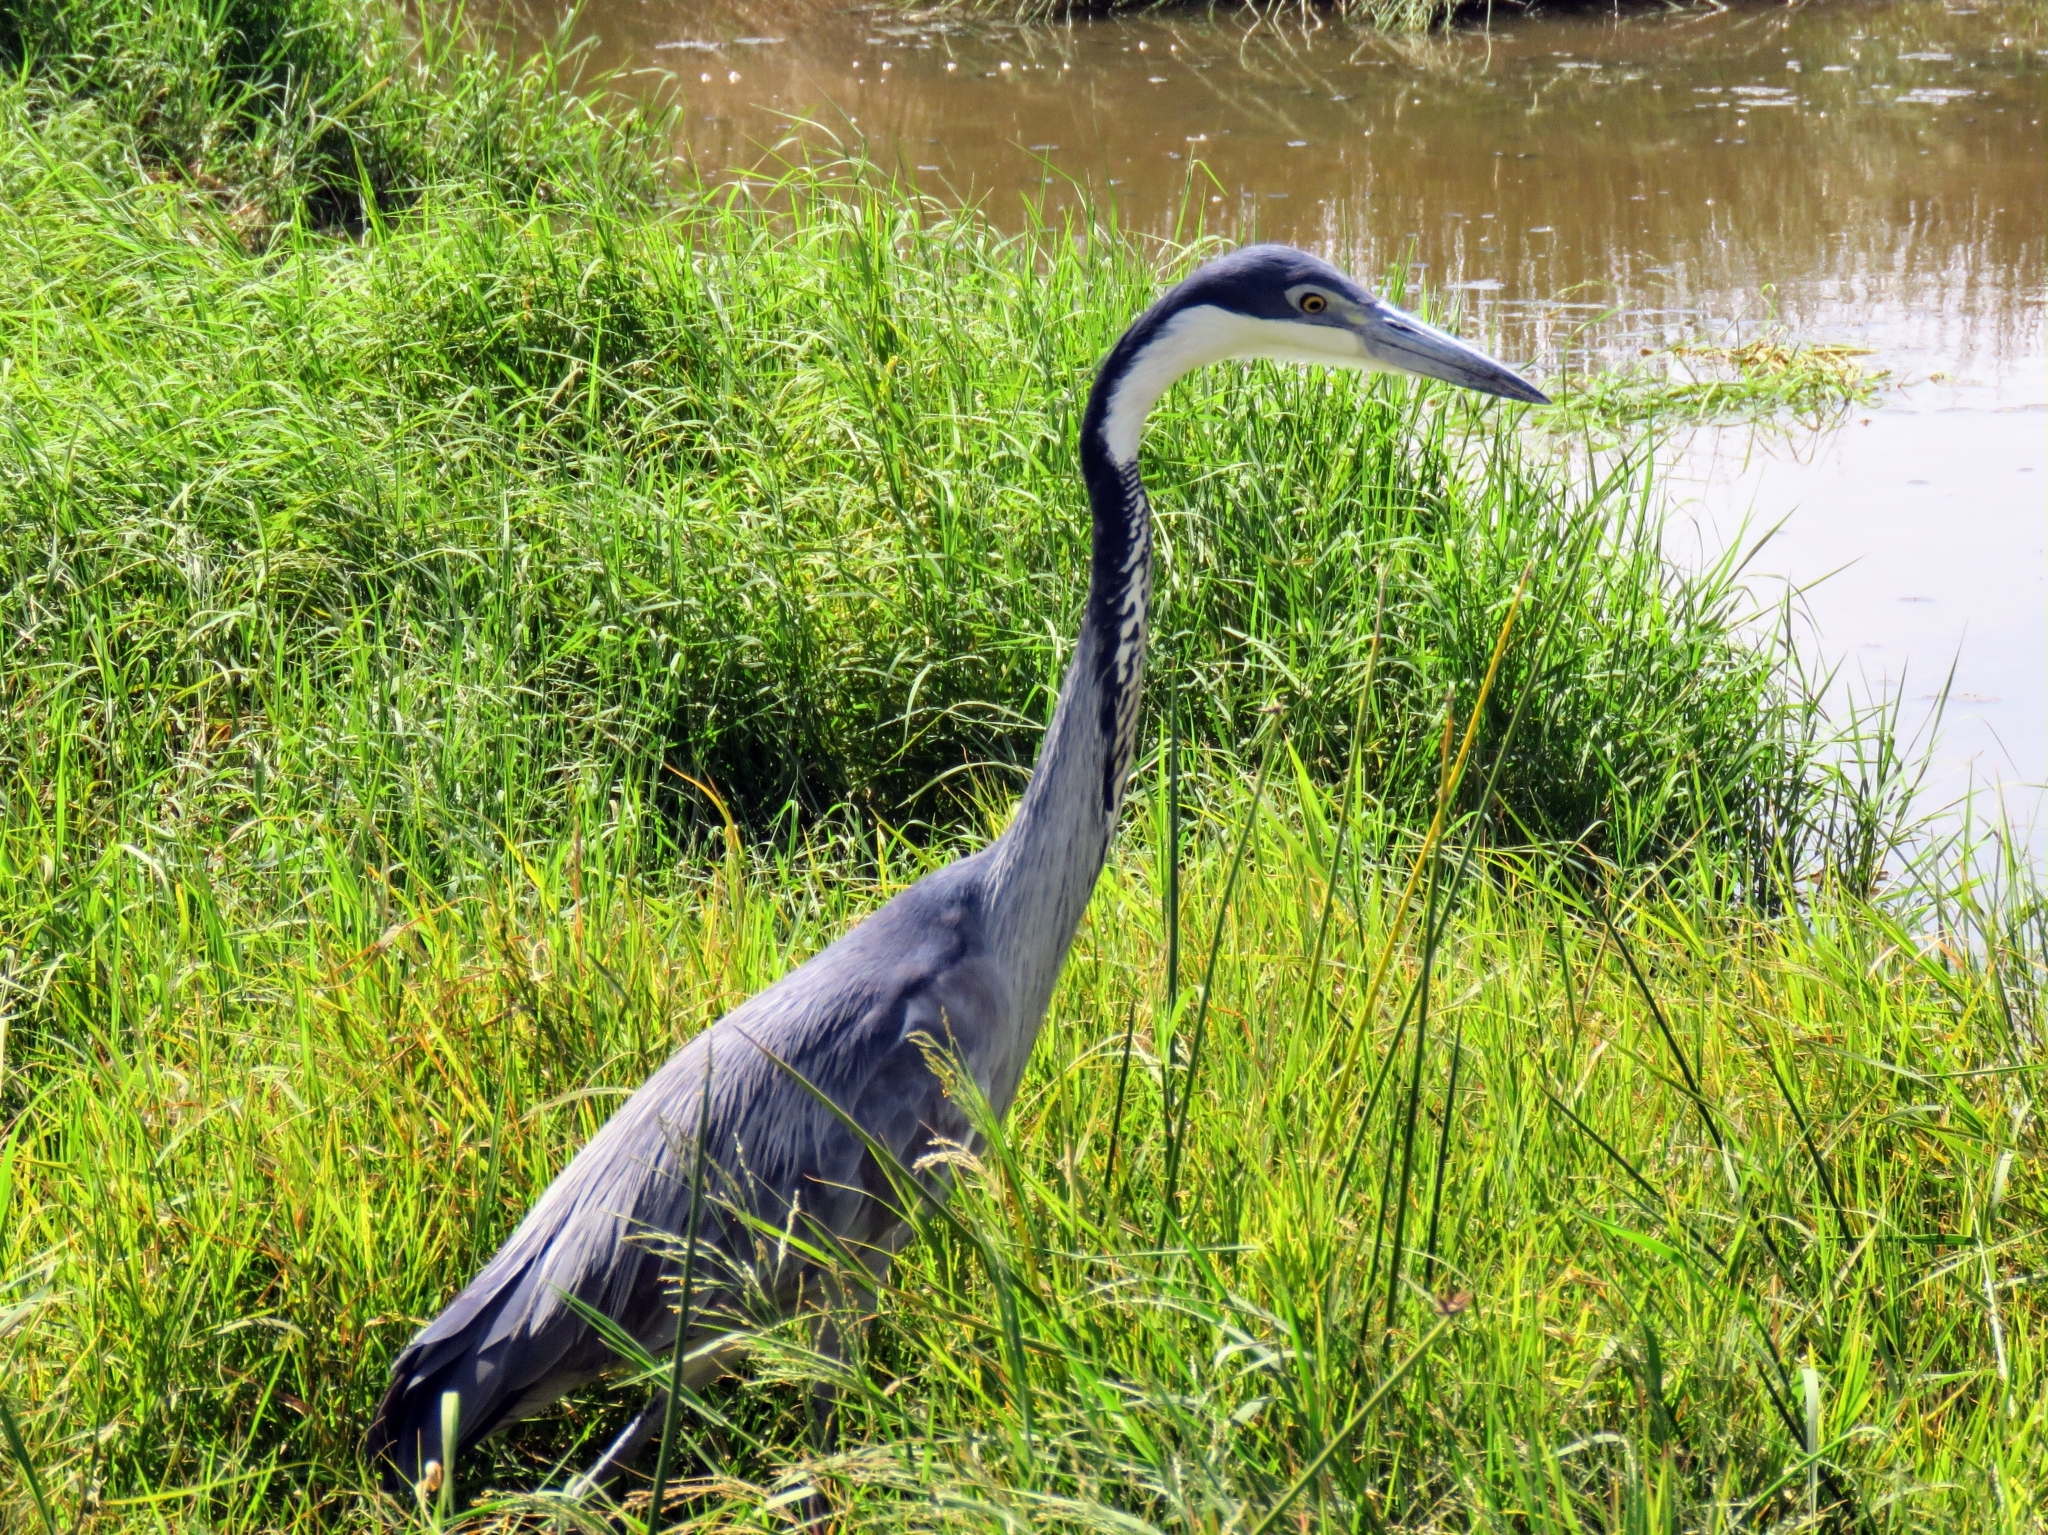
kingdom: Animalia
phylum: Chordata
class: Aves
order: Pelecaniformes
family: Ardeidae
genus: Ardea
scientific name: Ardea melanocephala
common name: Black-headed heron
